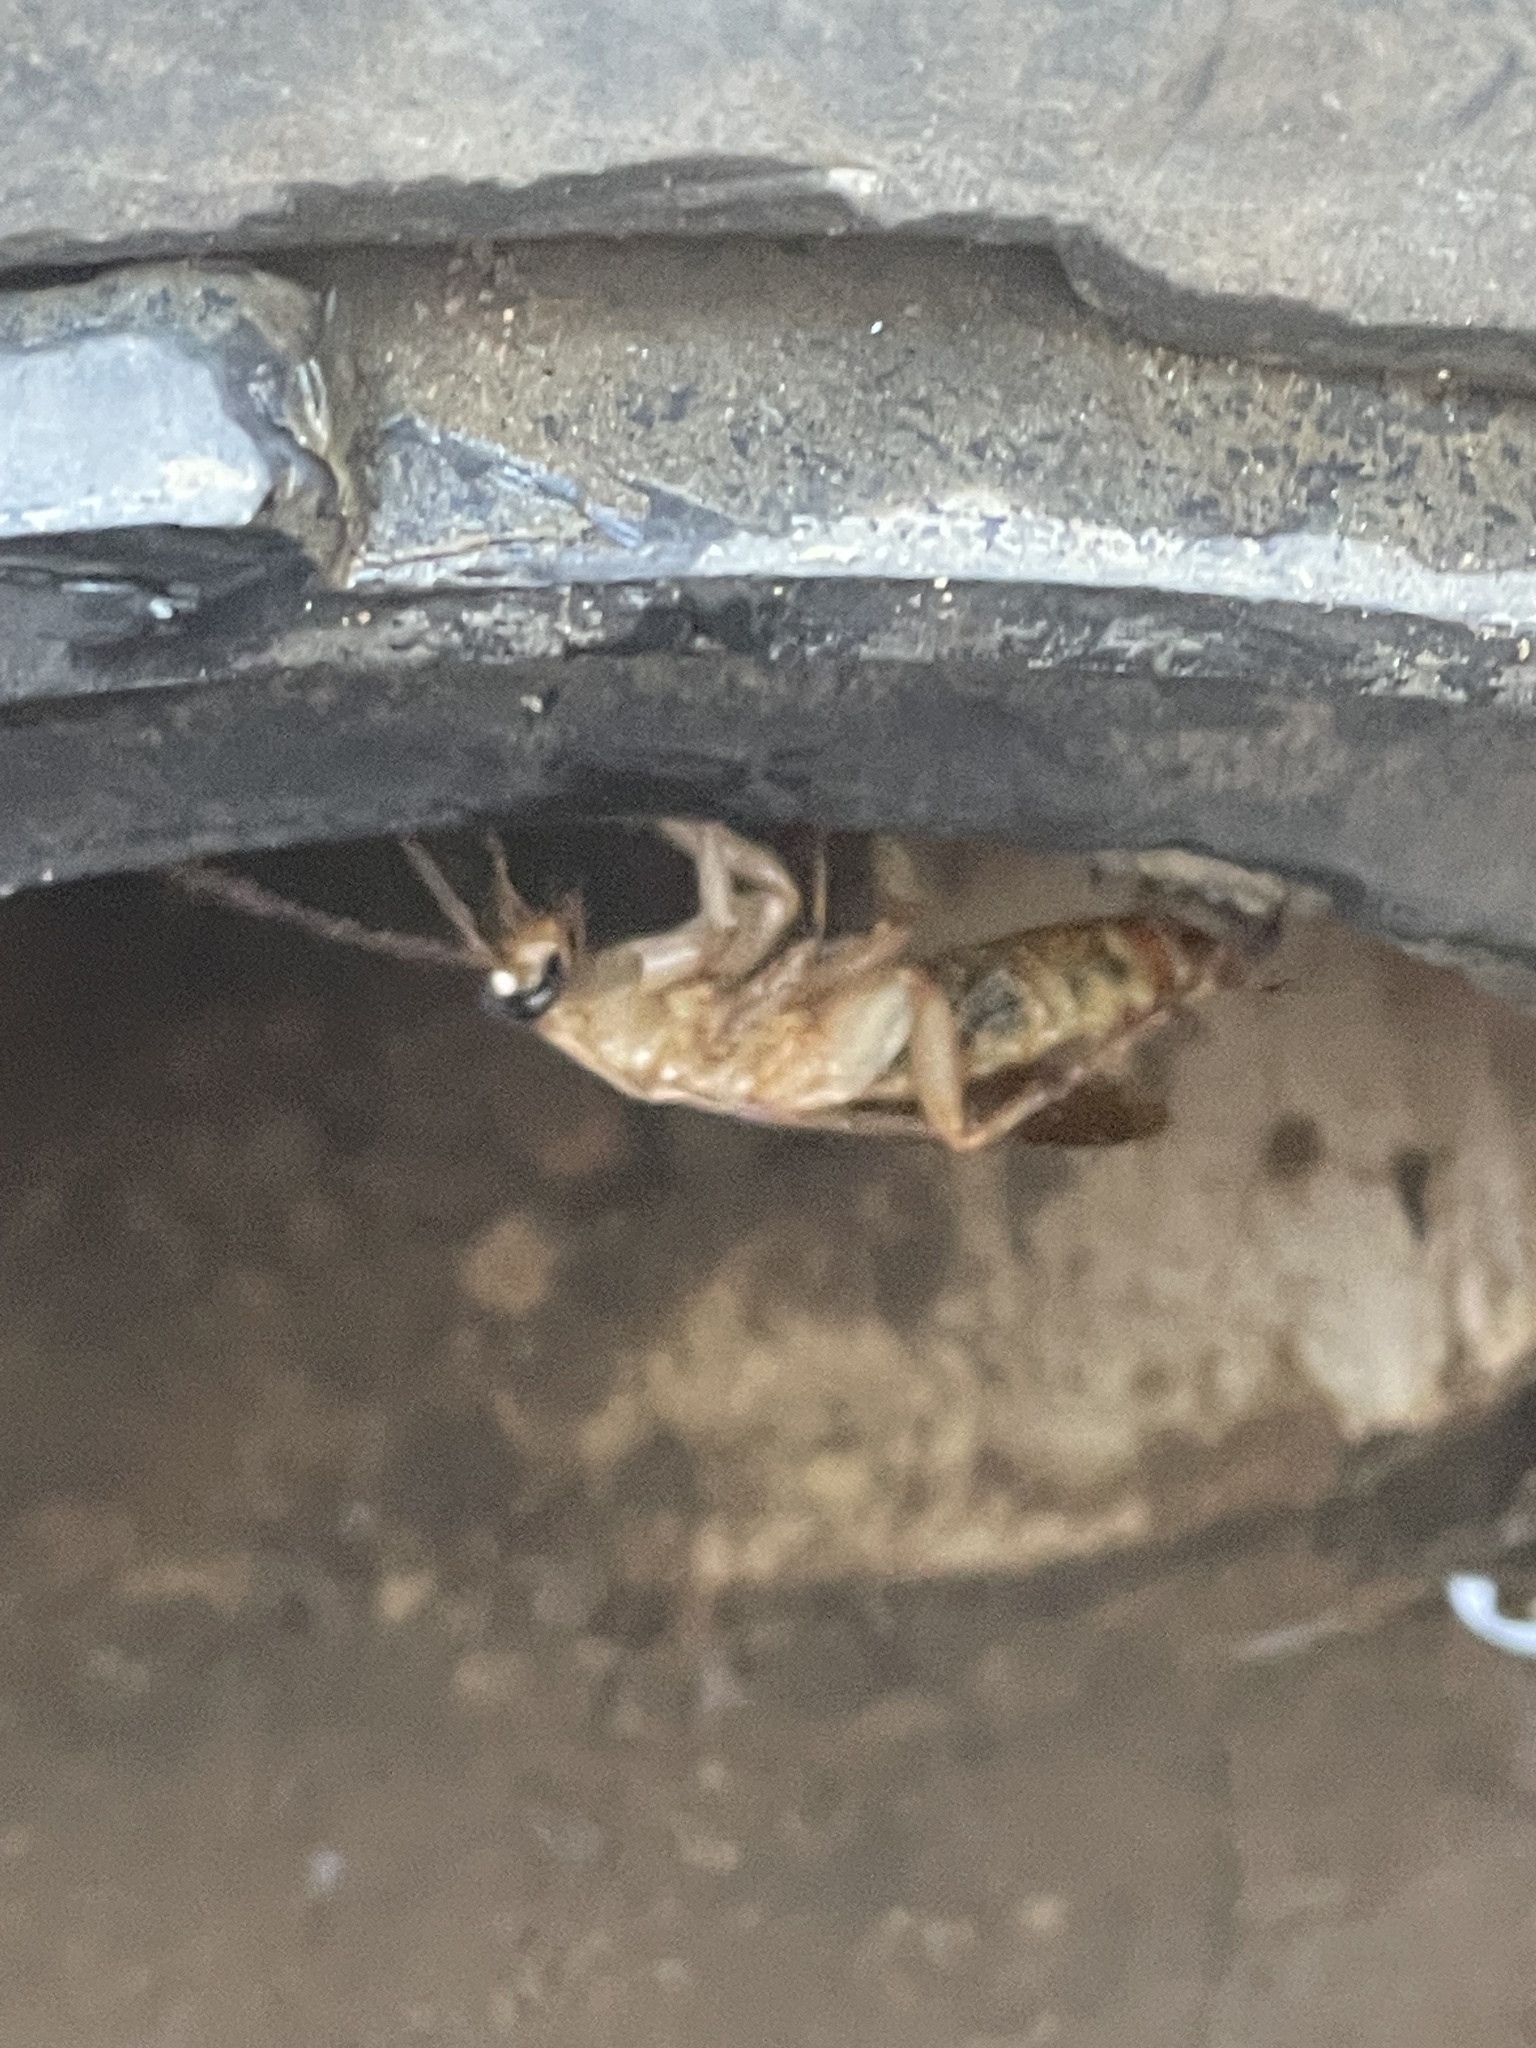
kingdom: Animalia
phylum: Arthropoda
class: Insecta
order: Blattodea
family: Blattidae
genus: Periplaneta
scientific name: Periplaneta lateralis
